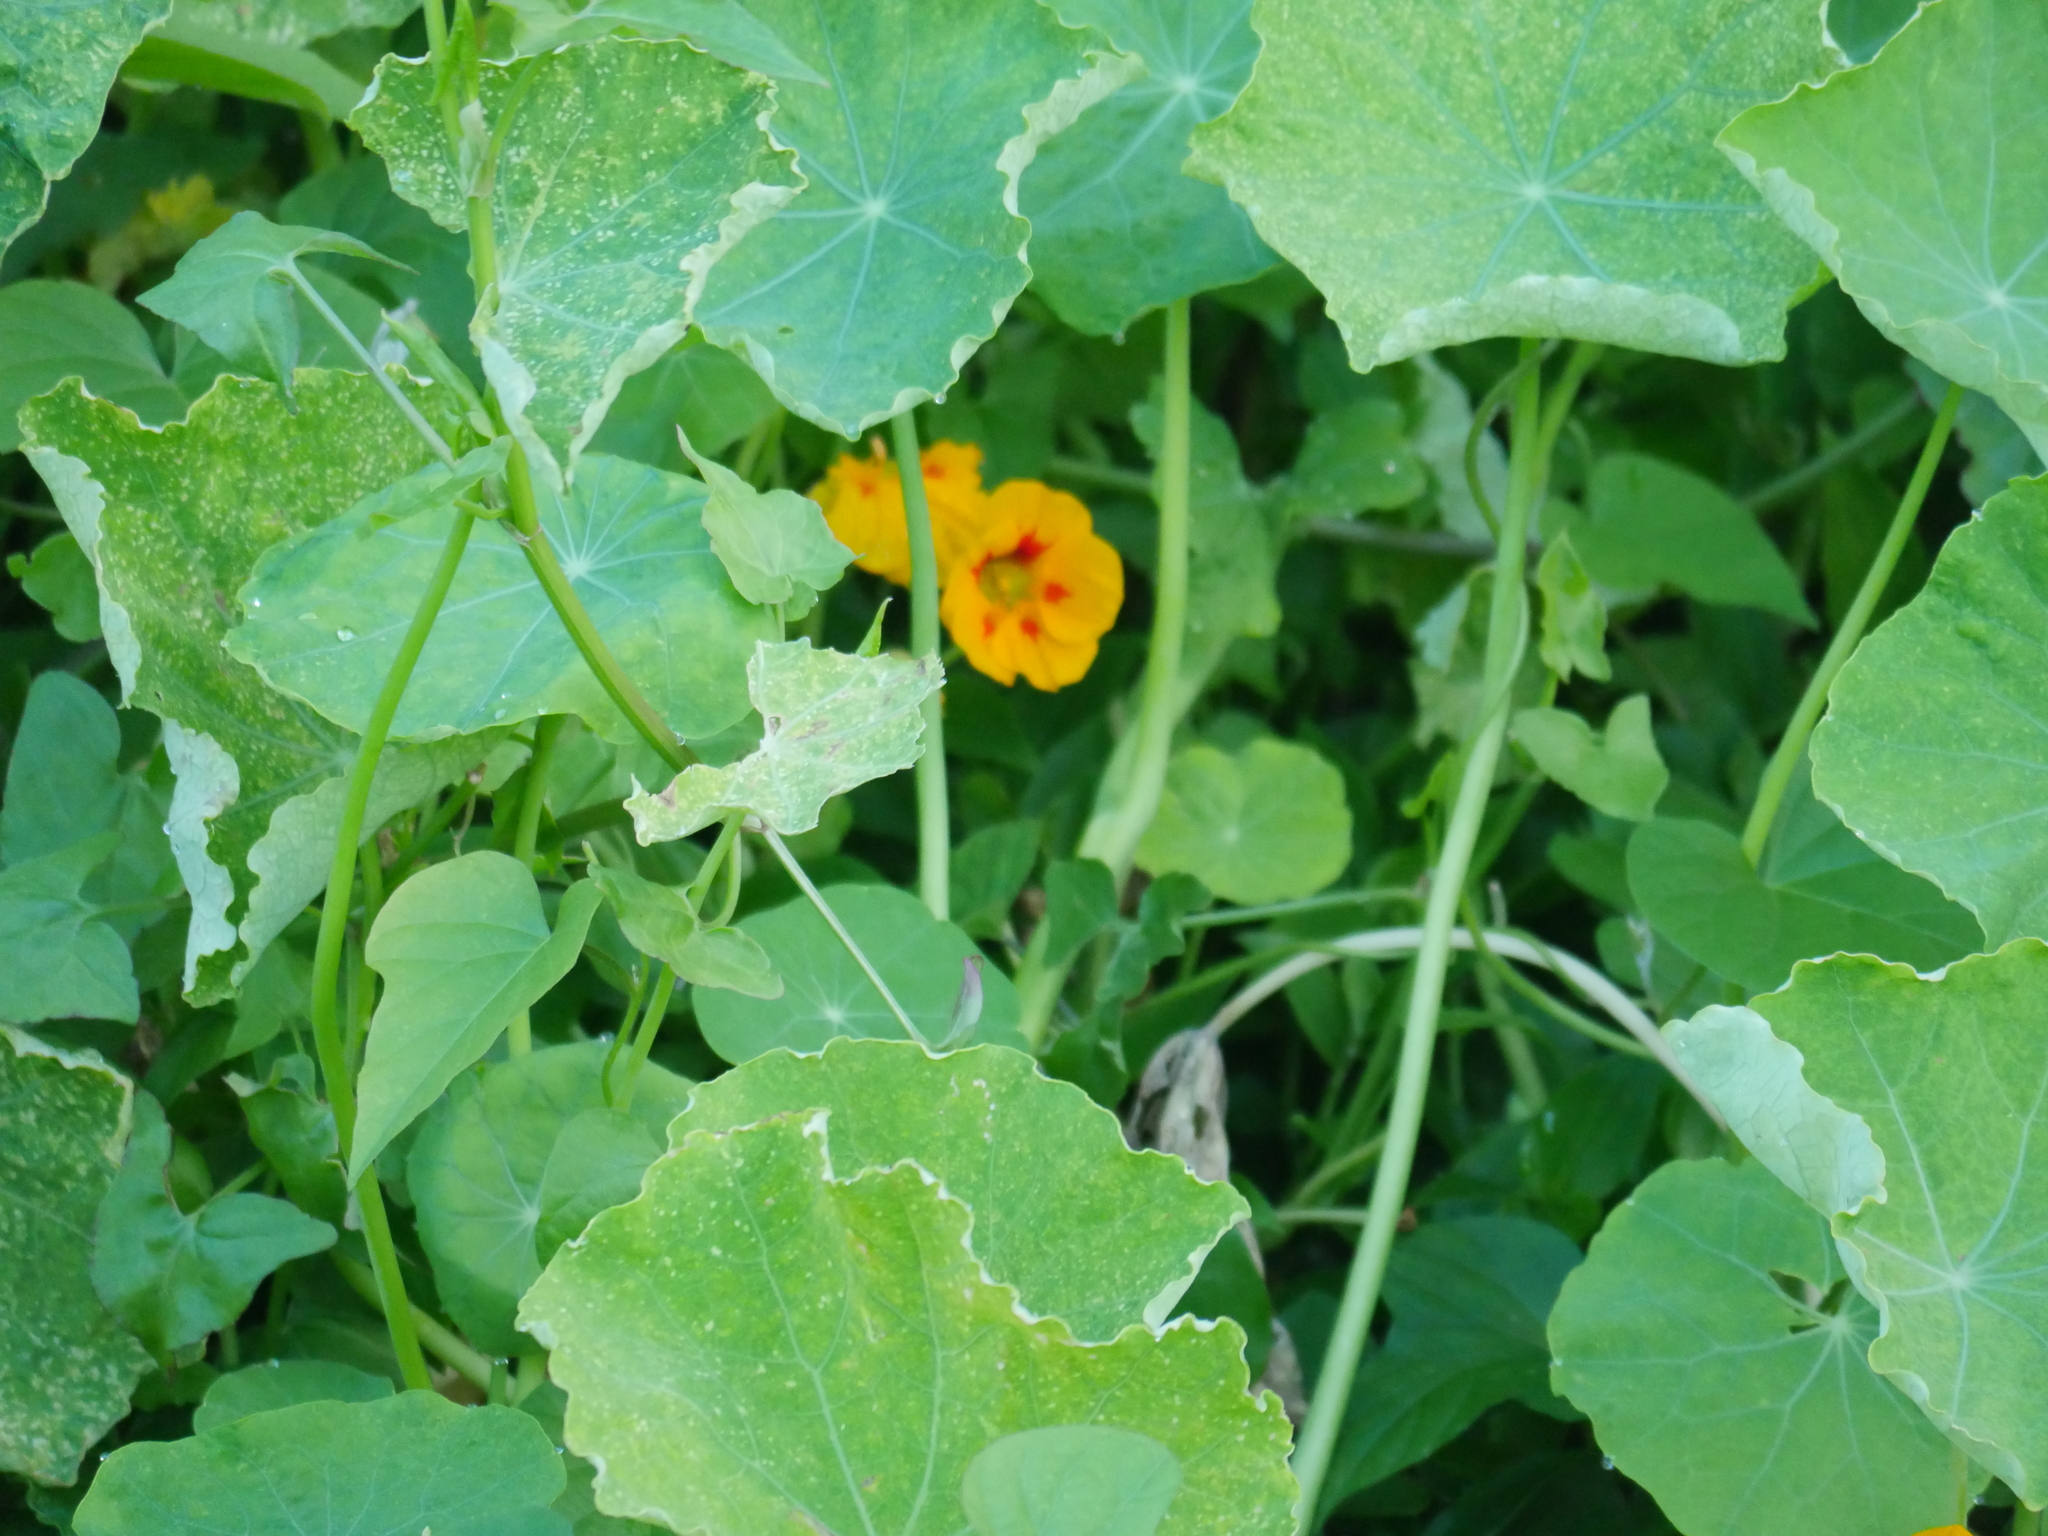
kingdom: Plantae
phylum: Tracheophyta
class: Magnoliopsida
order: Brassicales
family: Tropaeolaceae
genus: Tropaeolum
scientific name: Tropaeolum majus
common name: Nasturtium
